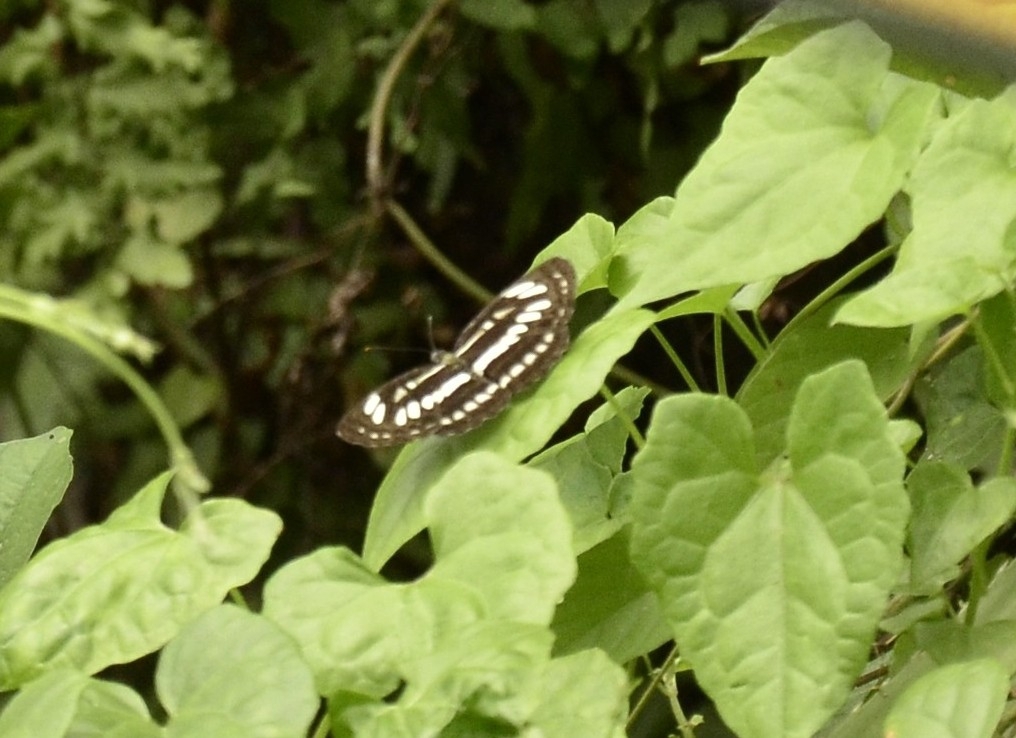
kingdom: Animalia
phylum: Arthropoda
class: Insecta
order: Lepidoptera
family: Nymphalidae
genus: Neptis
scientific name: Neptis hylas
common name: Common sailer
